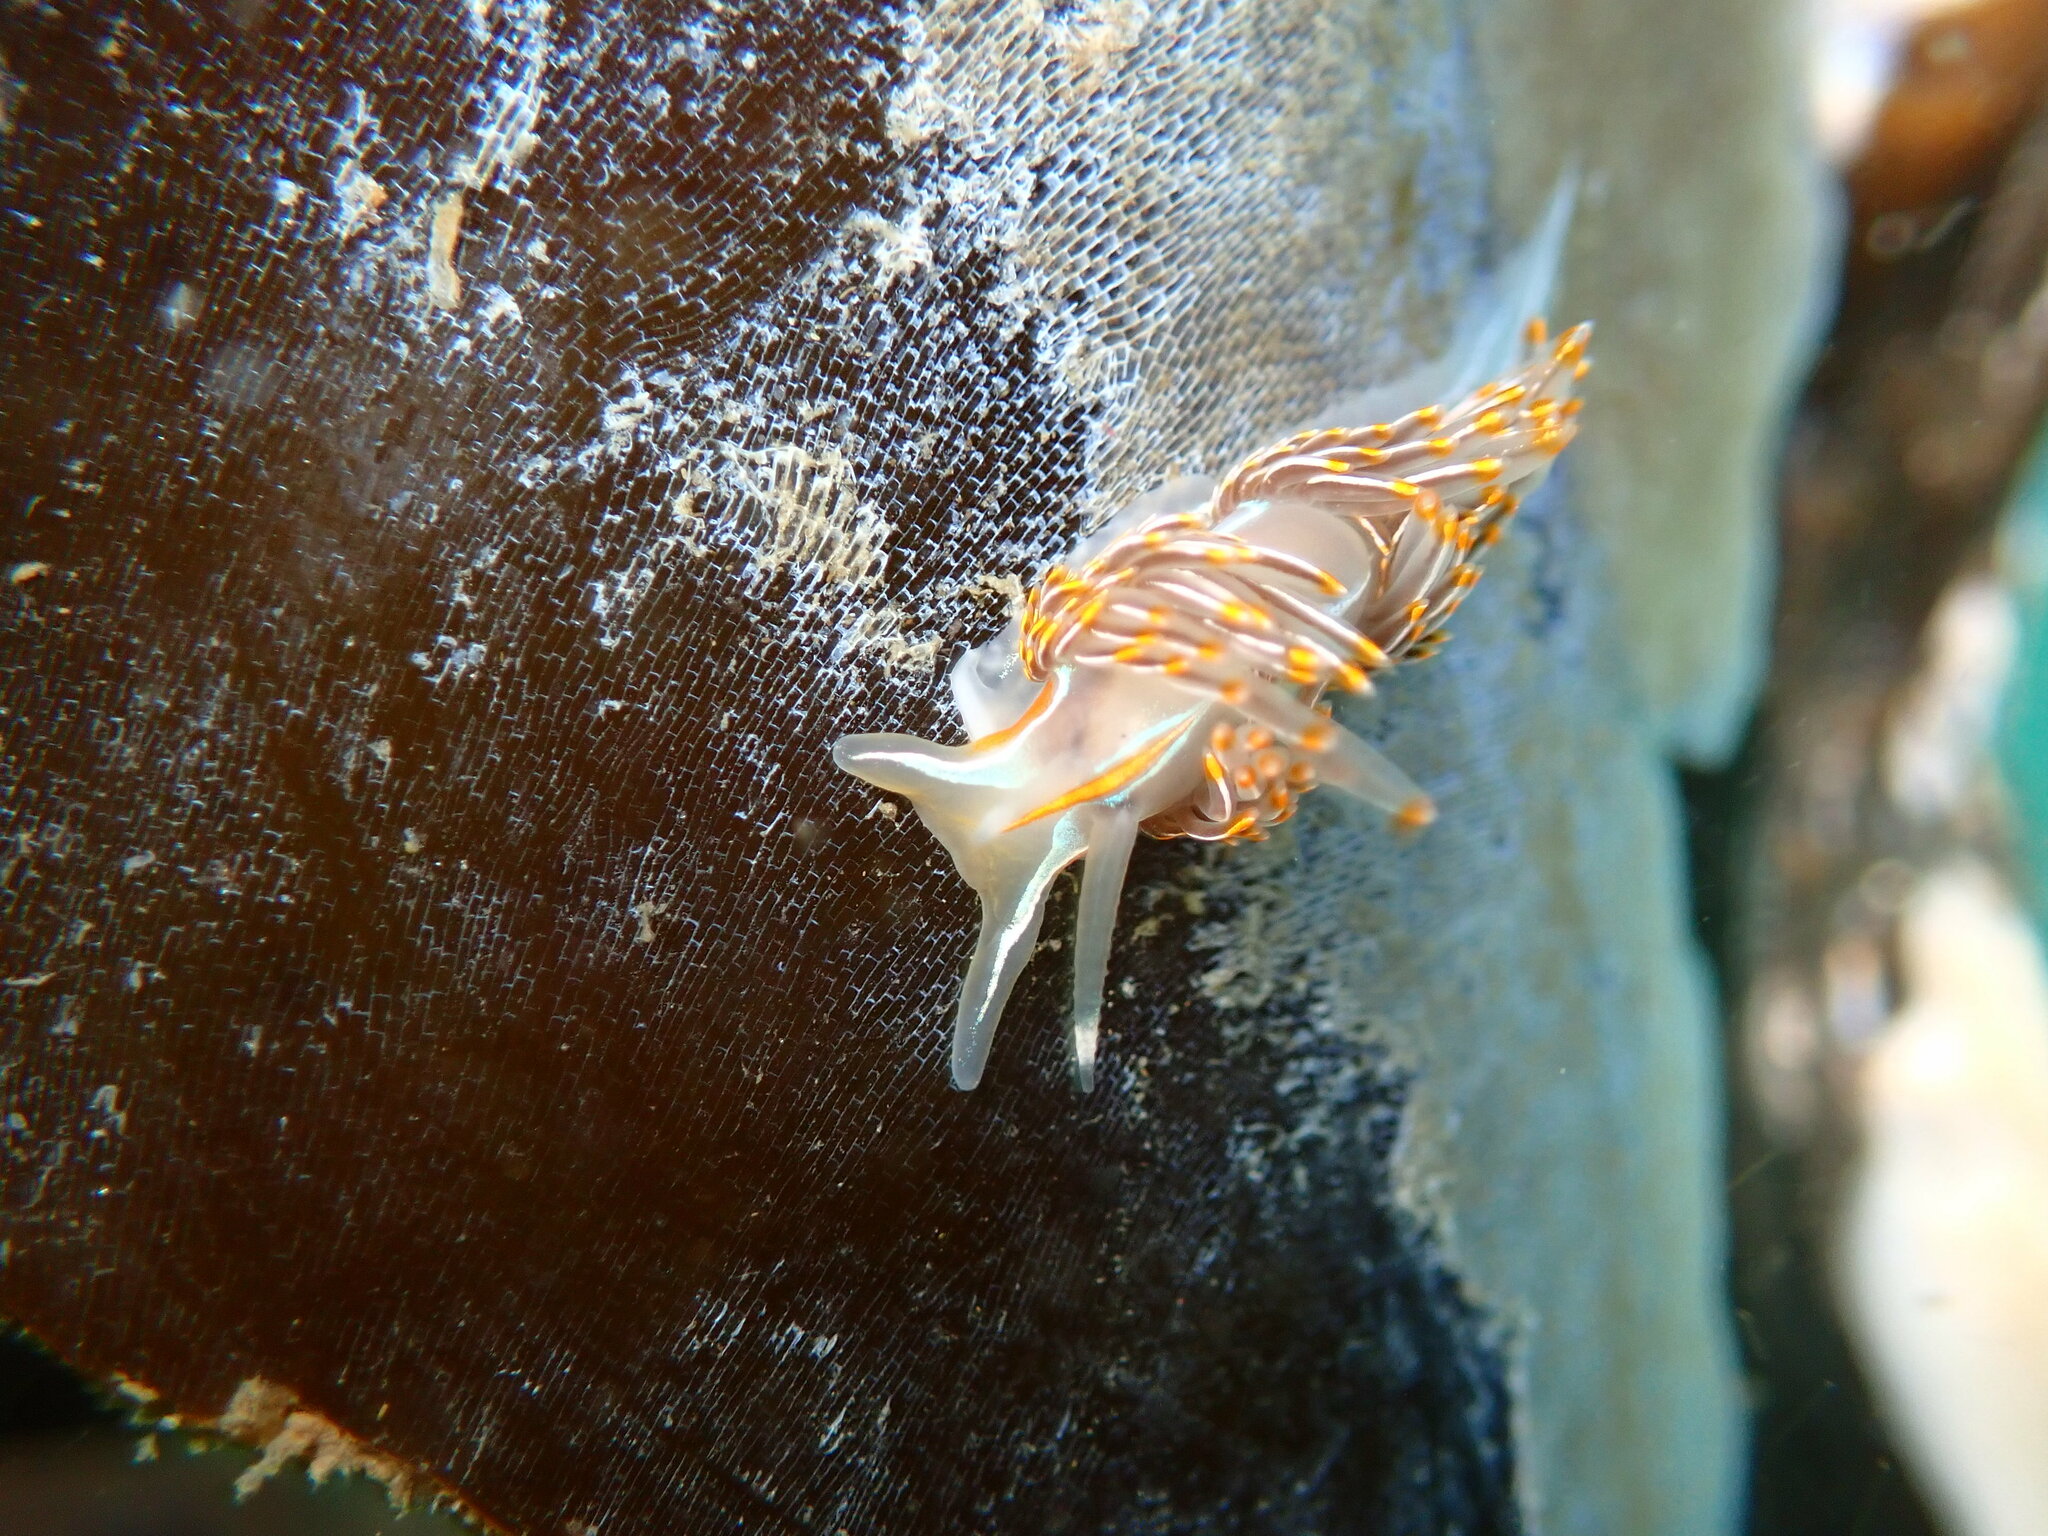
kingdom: Animalia
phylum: Mollusca
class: Gastropoda
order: Nudibranchia
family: Myrrhinidae
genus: Hermissenda
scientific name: Hermissenda crassicornis
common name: Hermissenda
